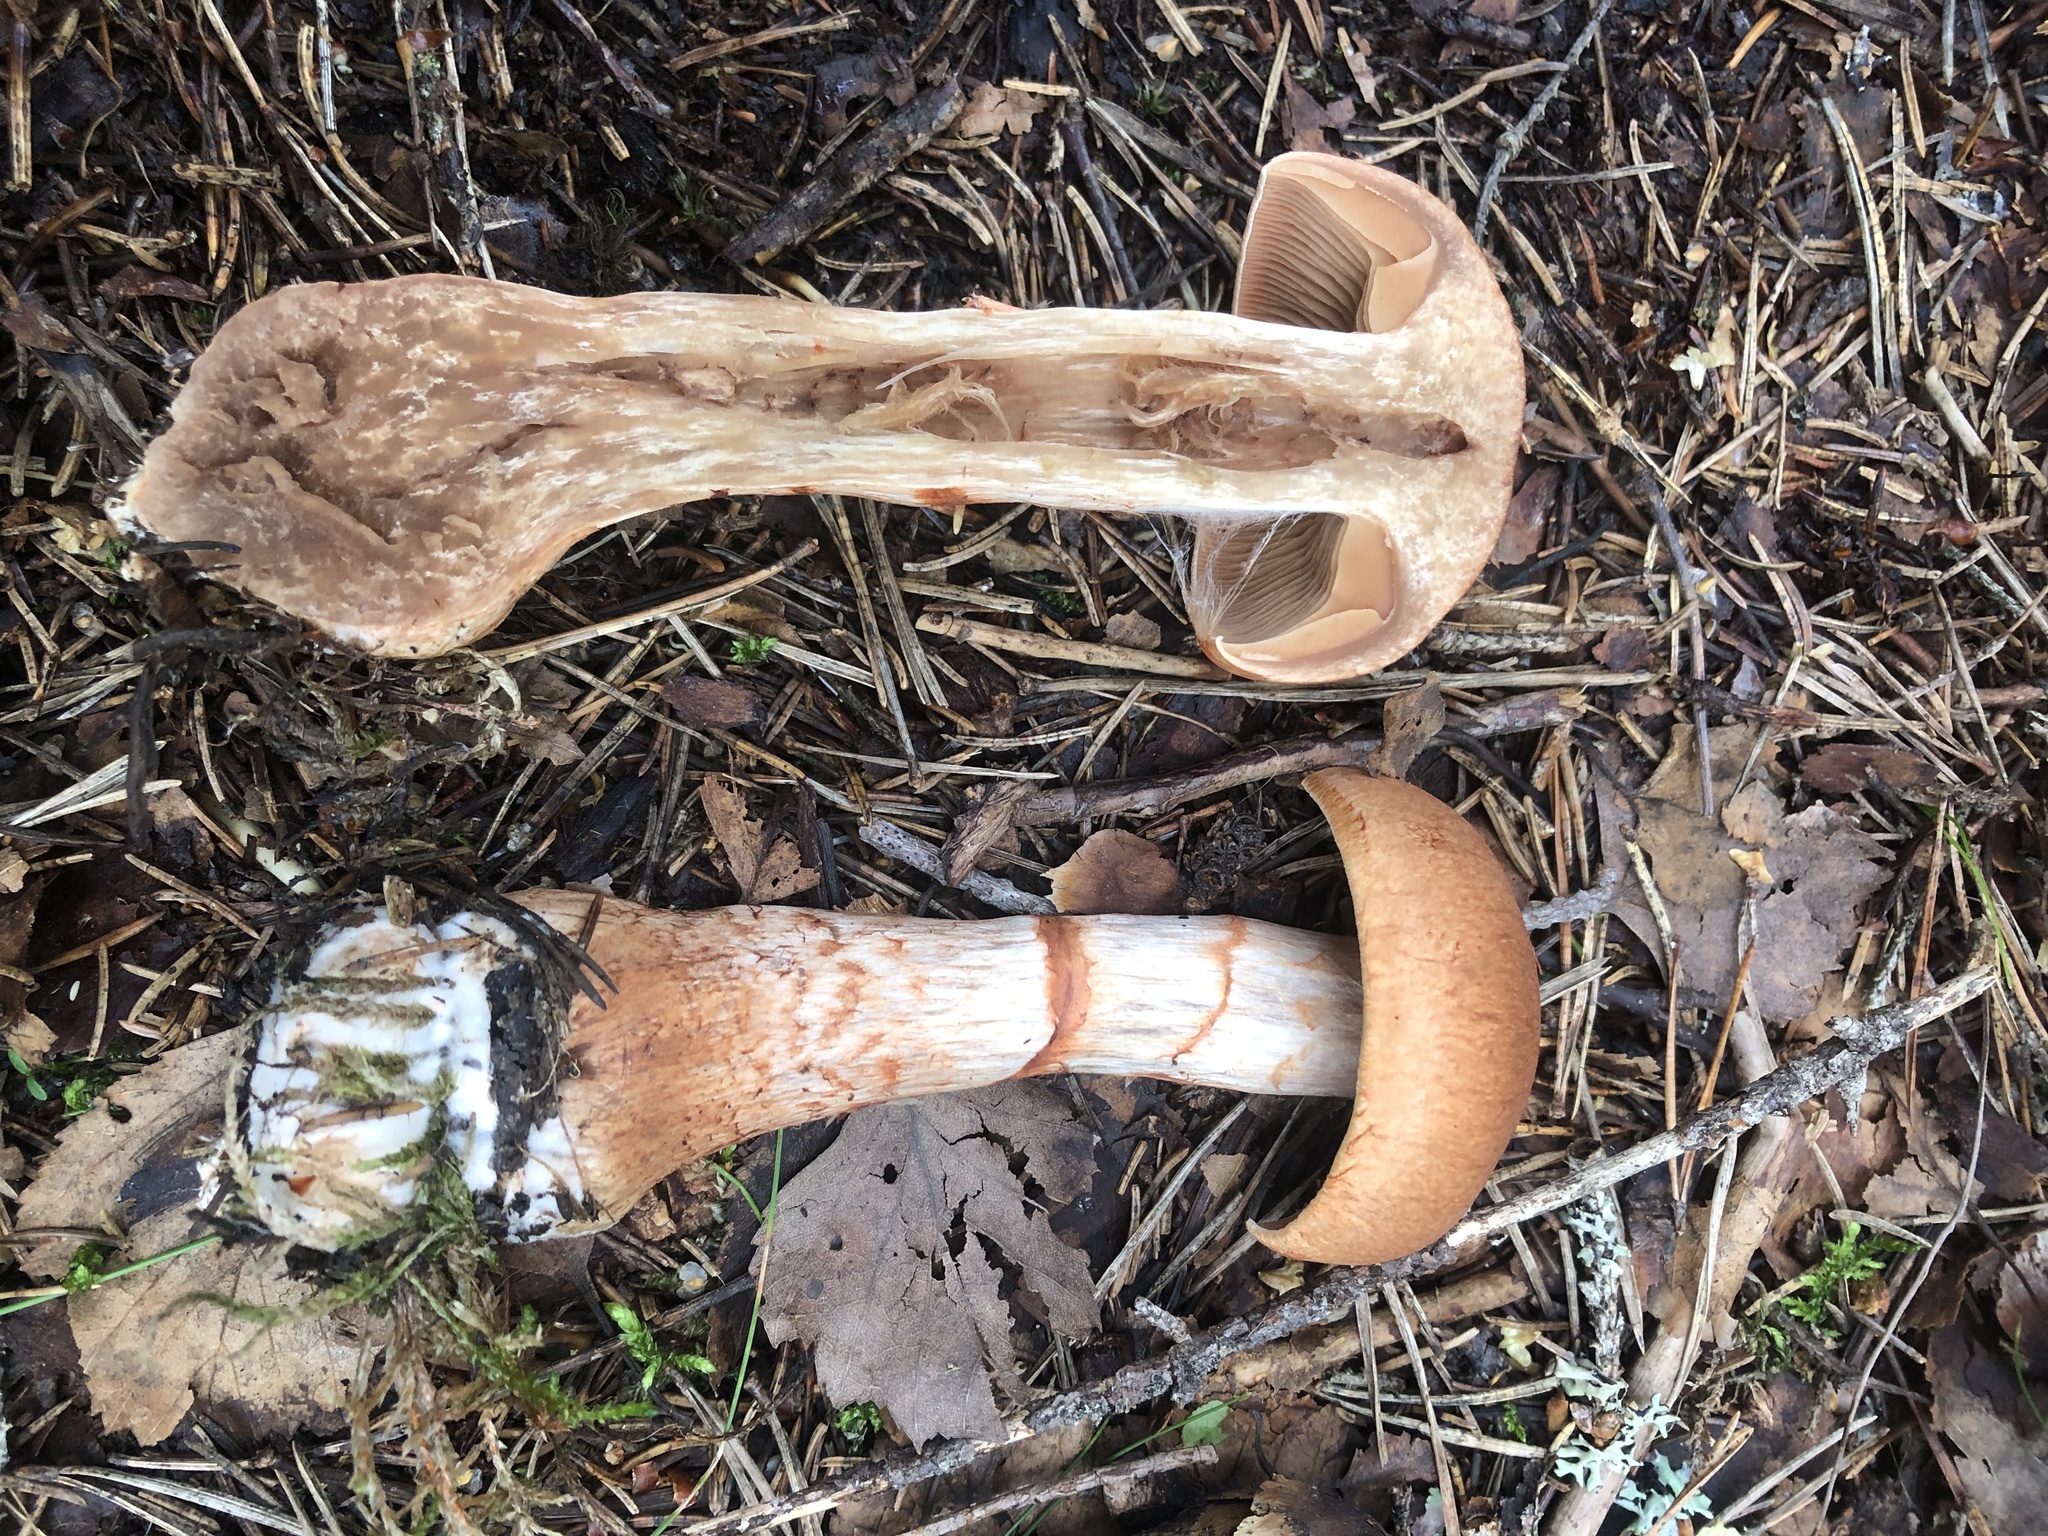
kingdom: Fungi
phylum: Basidiomycota
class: Agaricomycetes
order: Agaricales
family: Cortinariaceae
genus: Cortinarius
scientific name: Cortinarius armillatus
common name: Red banded webcap
